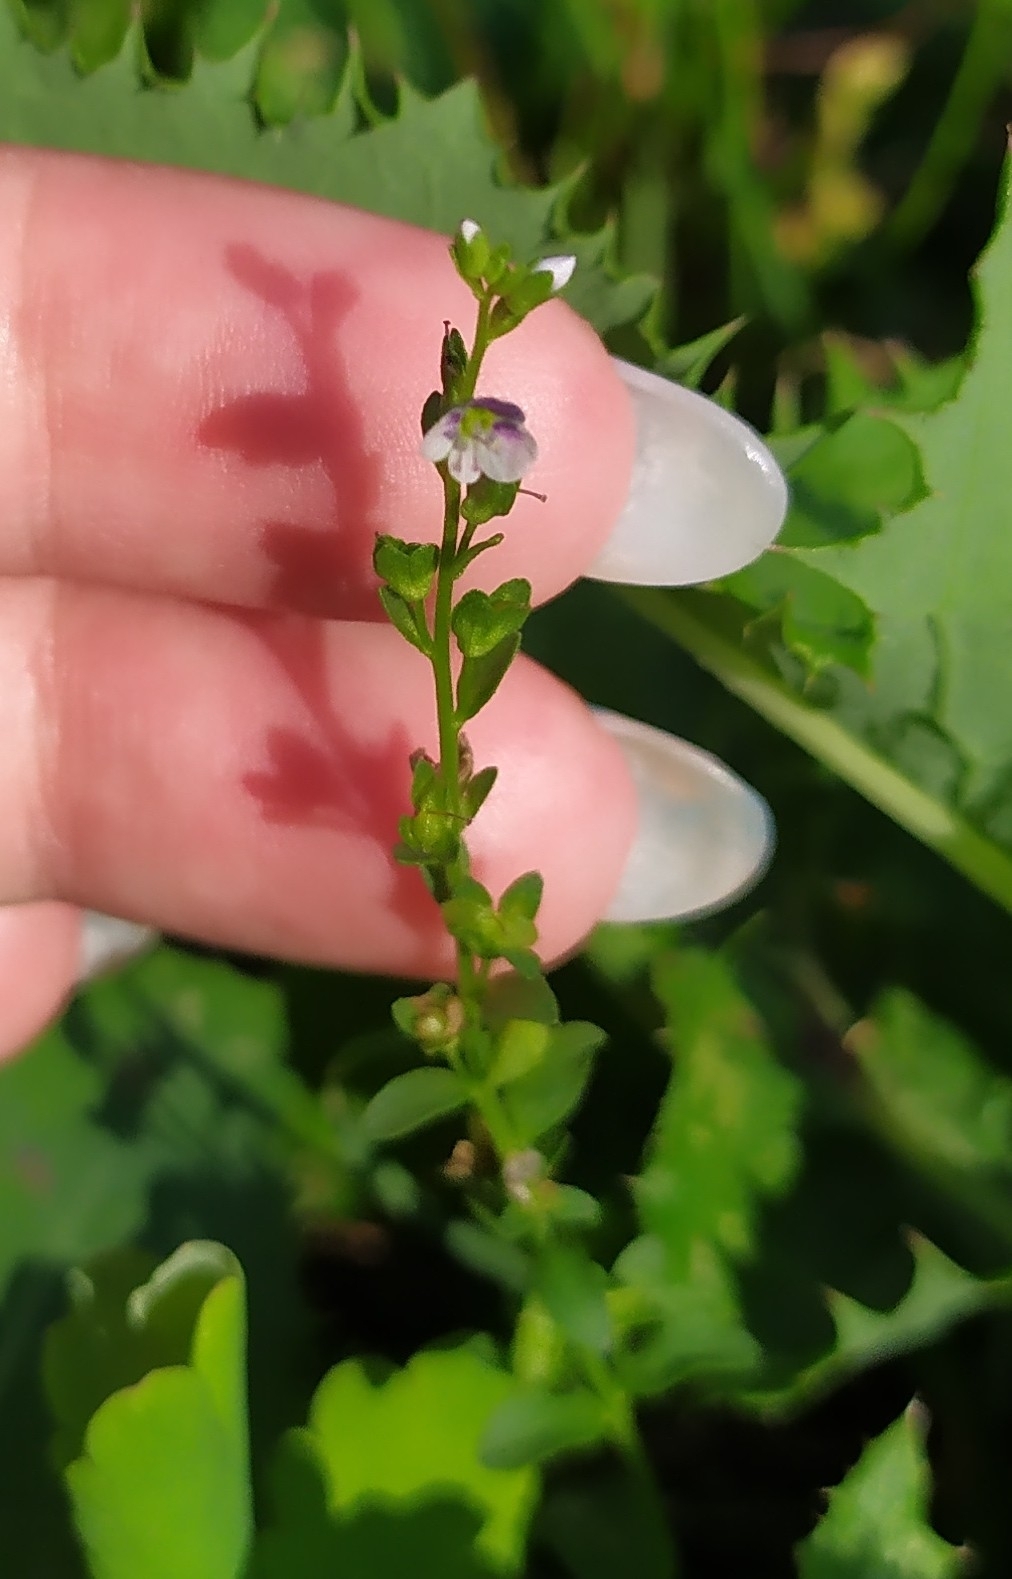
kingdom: Plantae
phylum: Tracheophyta
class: Magnoliopsida
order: Lamiales
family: Plantaginaceae
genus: Veronica
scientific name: Veronica serpyllifolia
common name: Thyme-leaved speedwell
